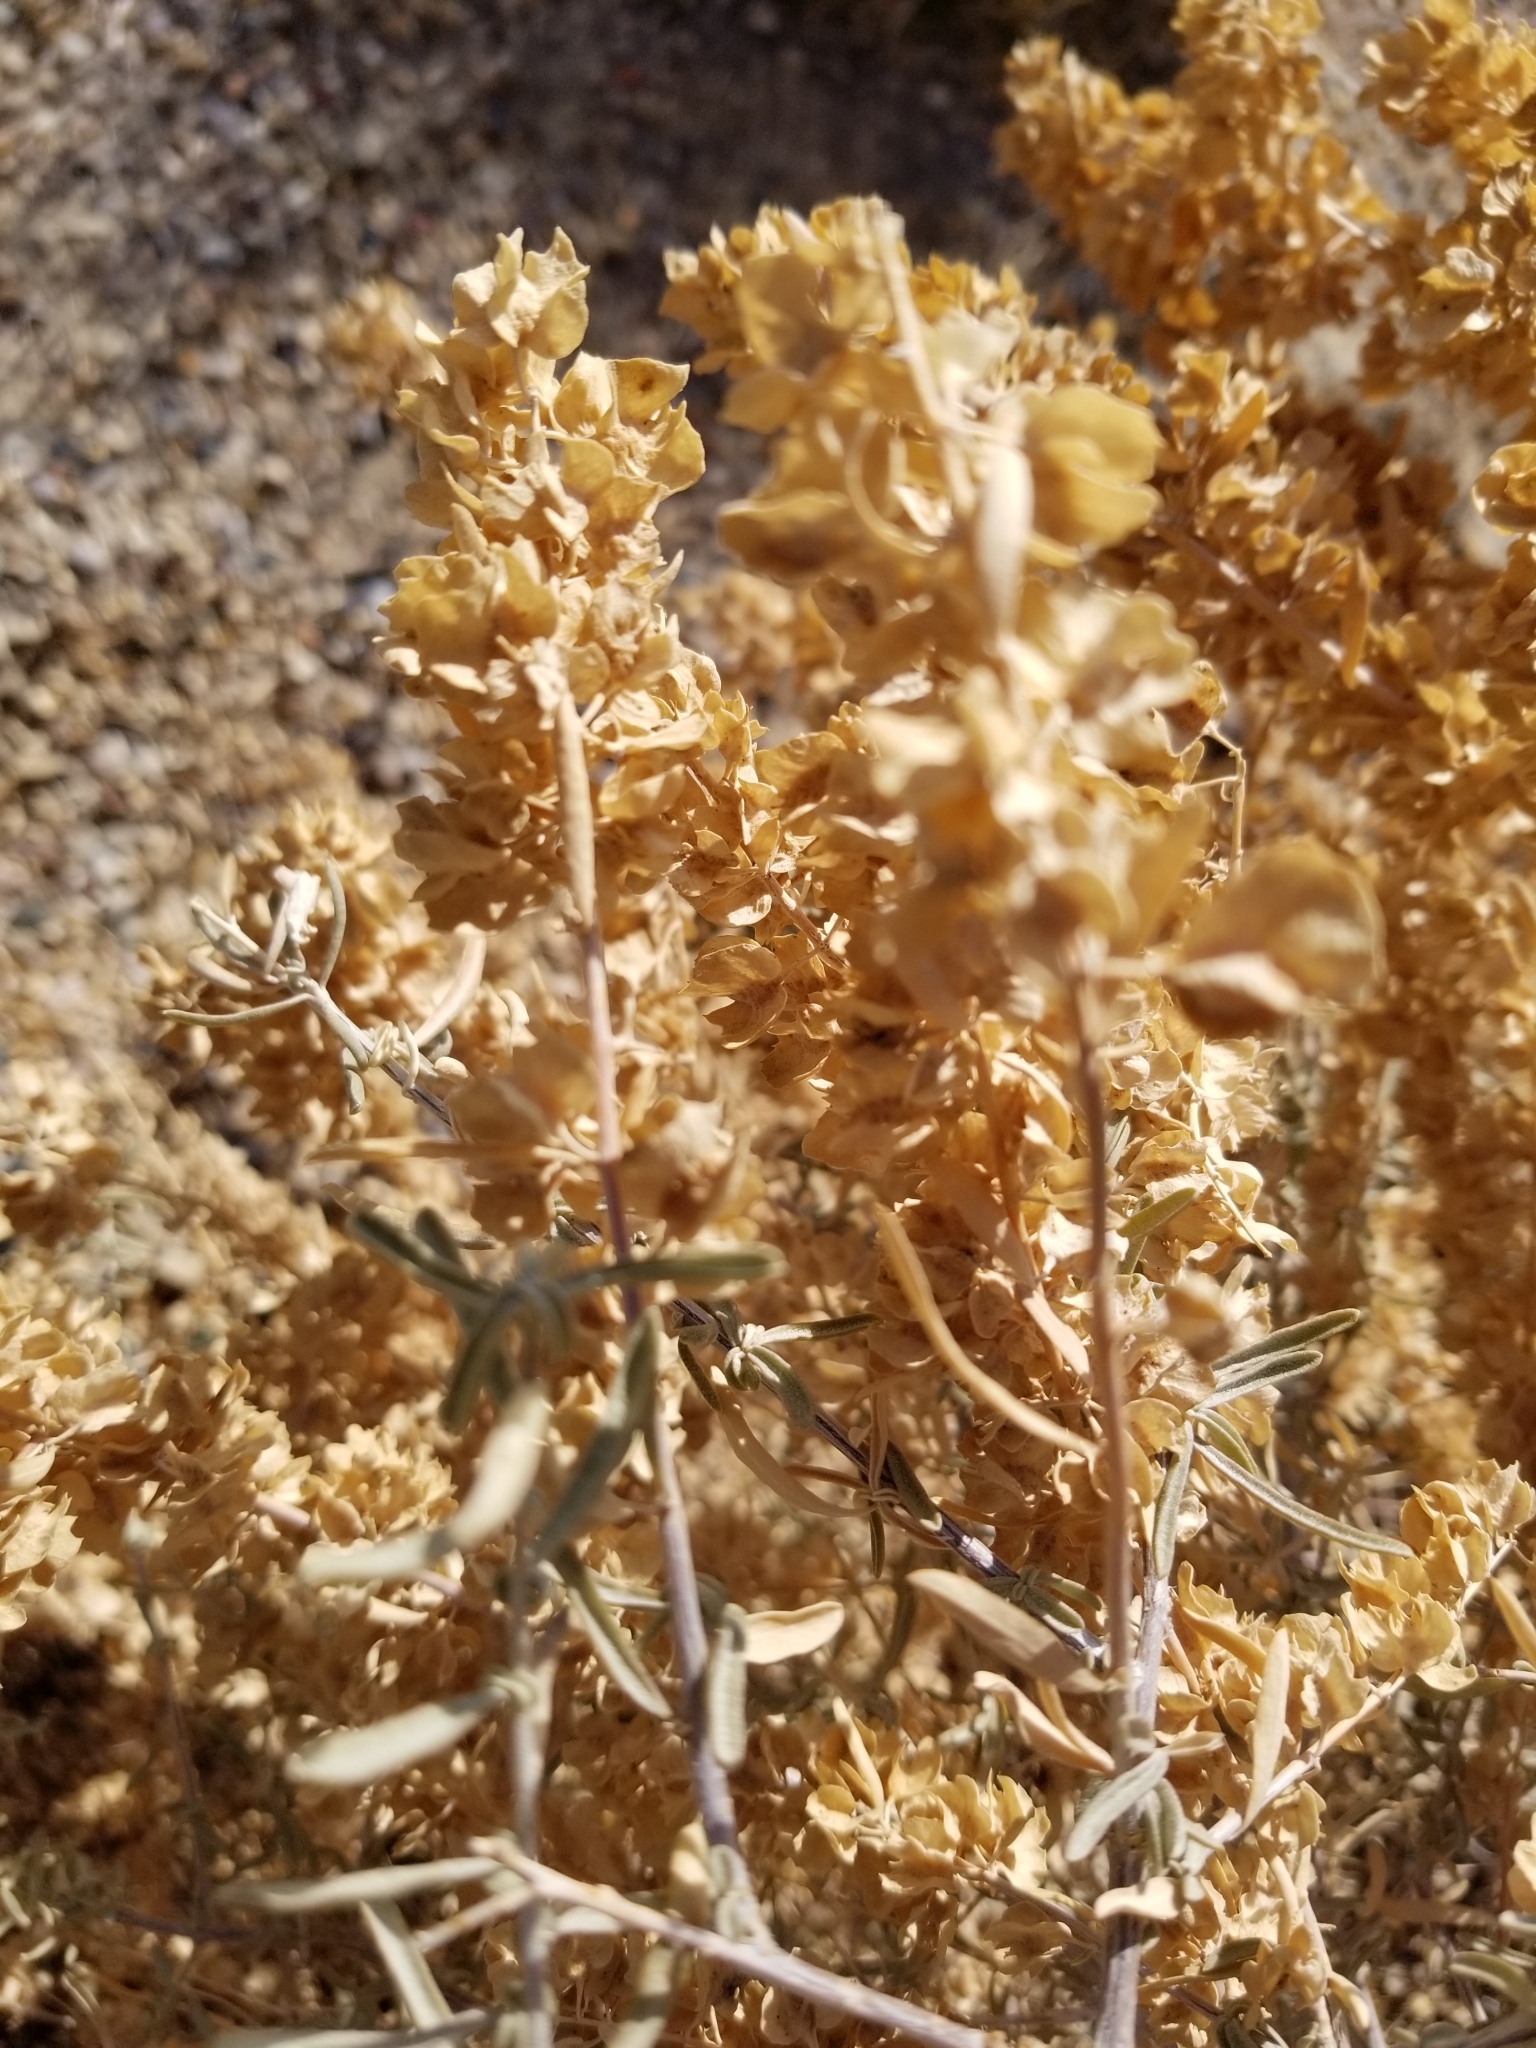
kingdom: Plantae
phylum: Tracheophyta
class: Magnoliopsida
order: Caryophyllales
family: Amaranthaceae
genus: Atriplex
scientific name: Atriplex canescens
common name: Four-wing saltbush
